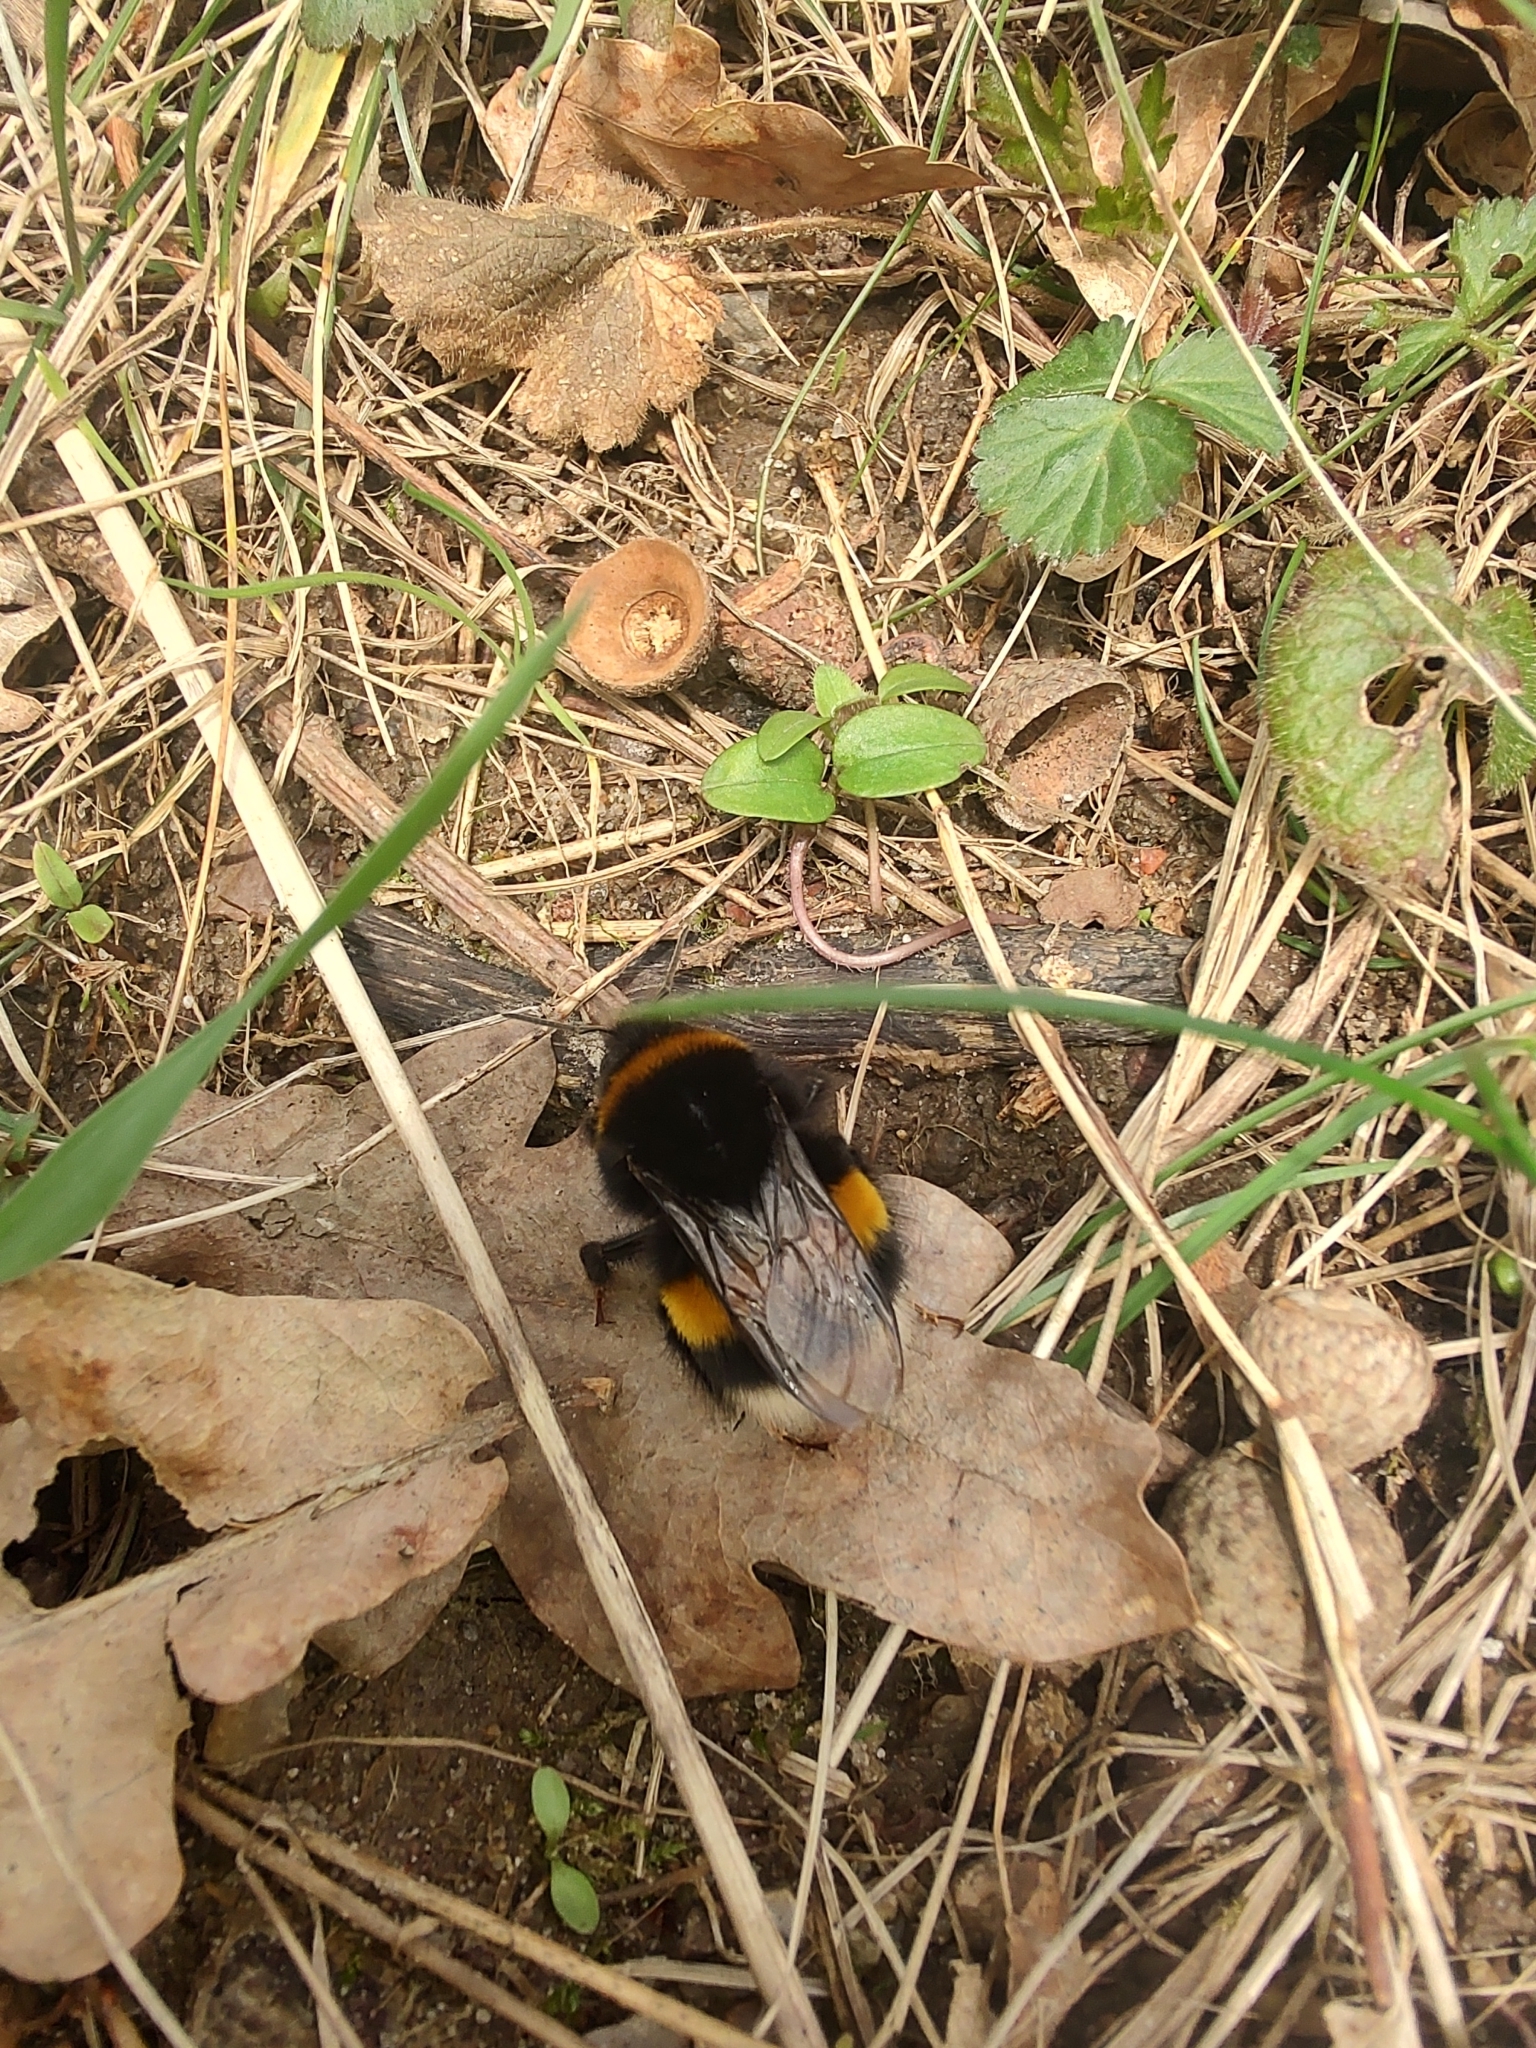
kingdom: Animalia
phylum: Arthropoda
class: Insecta
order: Hymenoptera
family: Apidae
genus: Bombus
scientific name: Bombus terrestris
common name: Buff-tailed bumblebee
